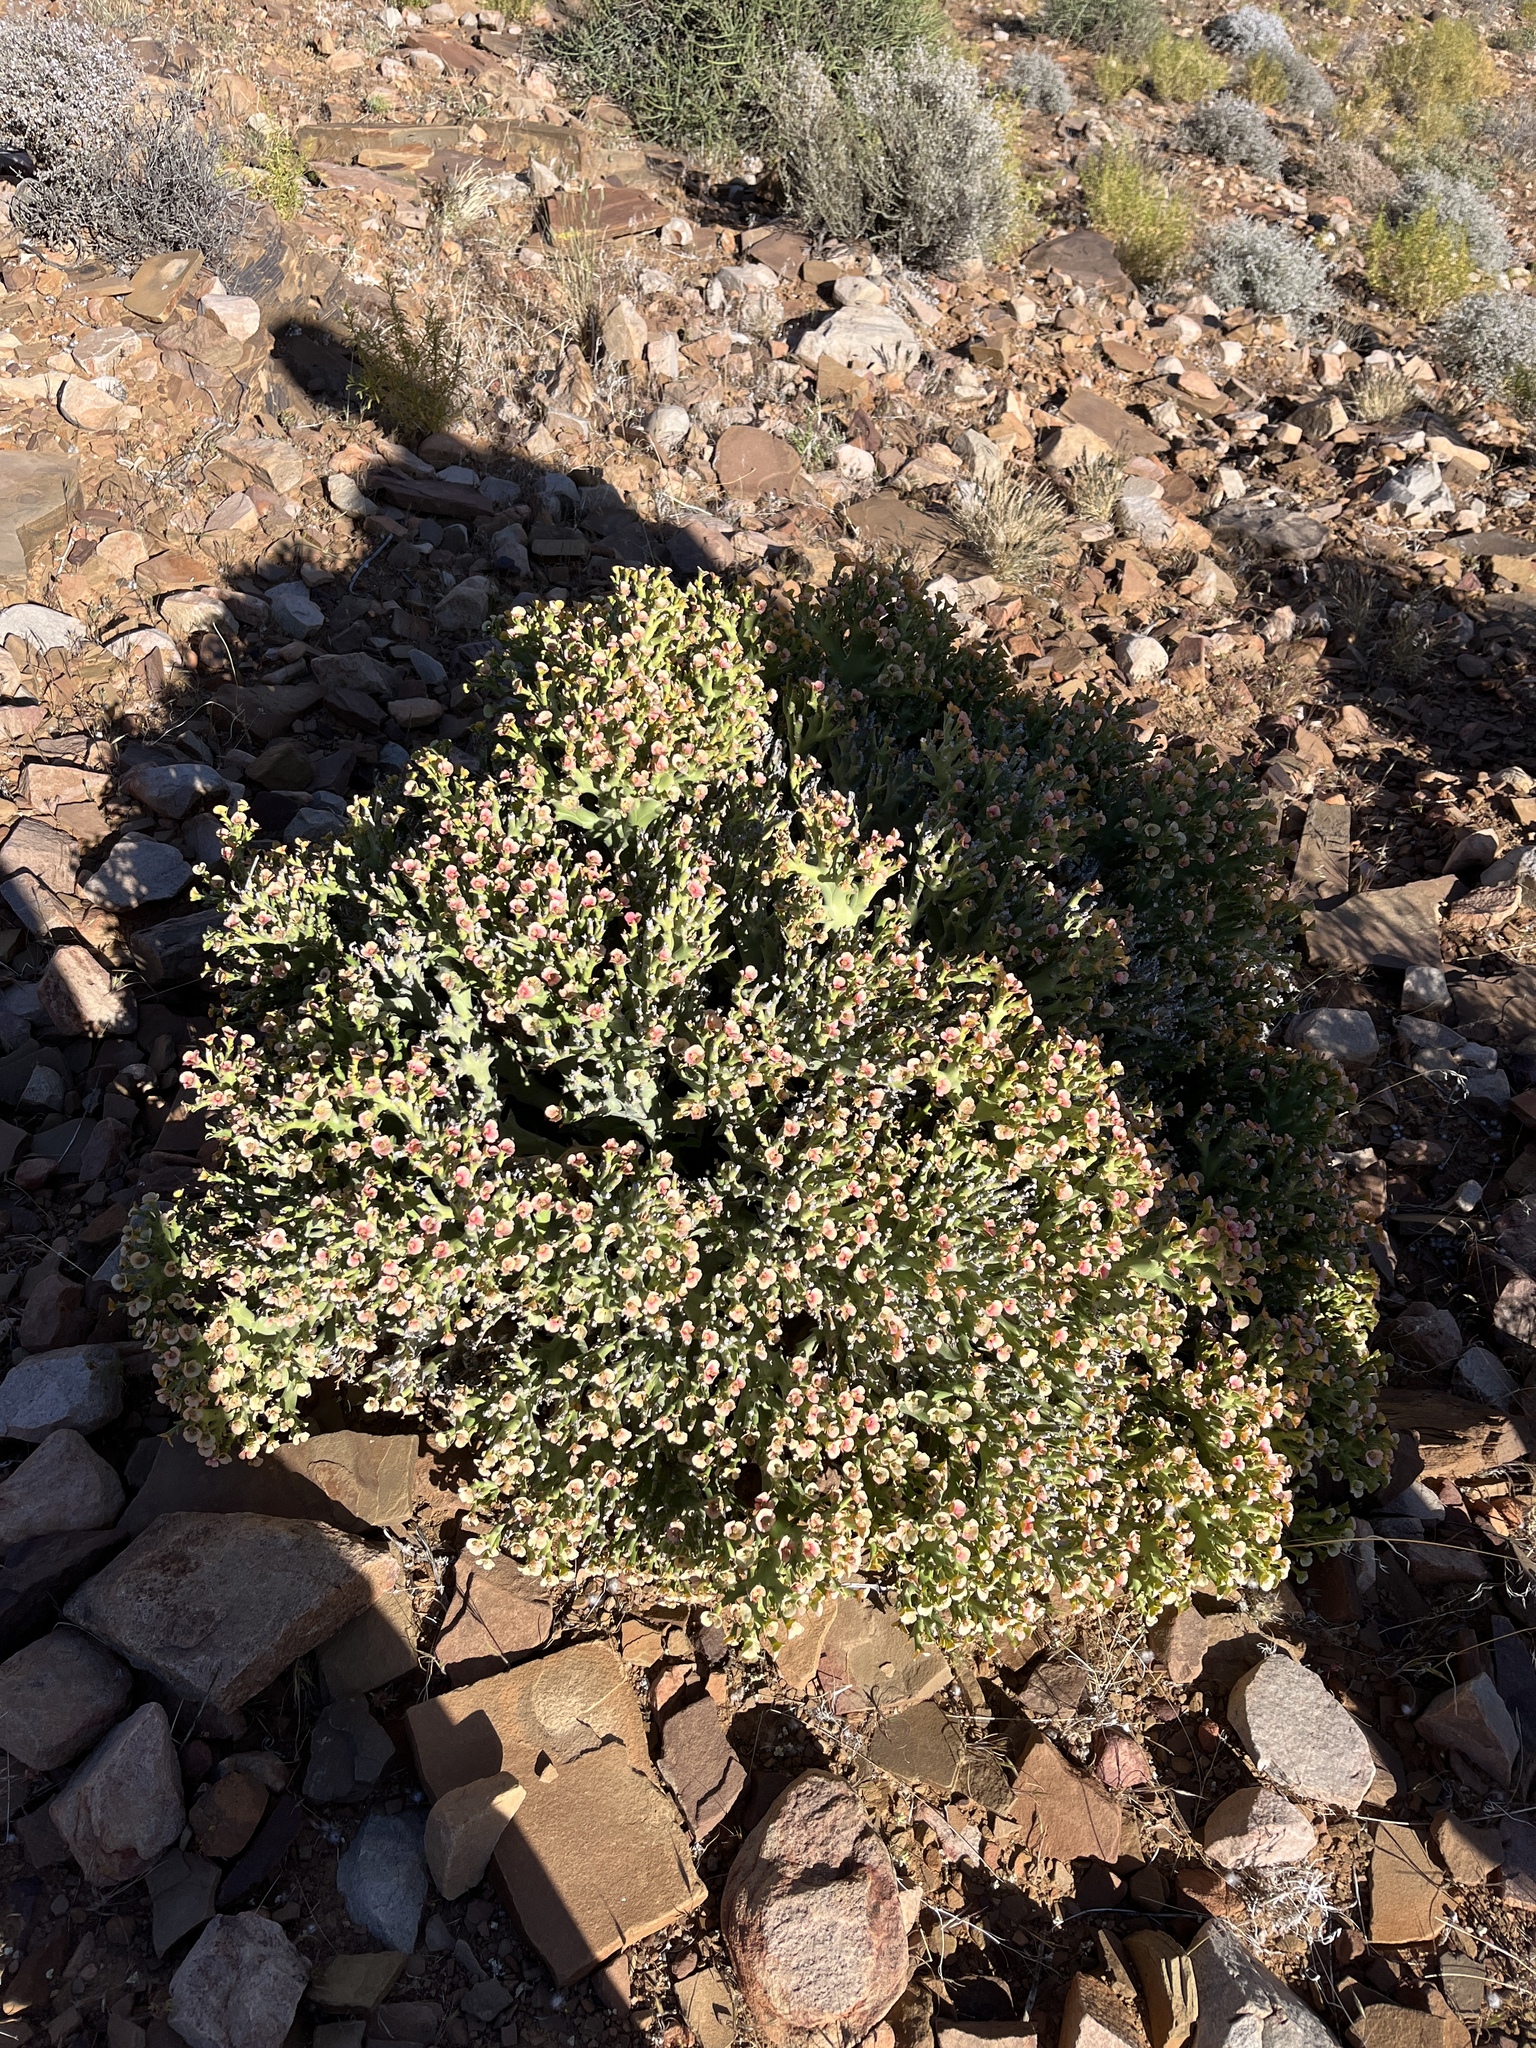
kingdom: Plantae
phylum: Tracheophyta
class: Magnoliopsida
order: Malpighiales
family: Euphorbiaceae
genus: Euphorbia
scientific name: Euphorbia hamata
